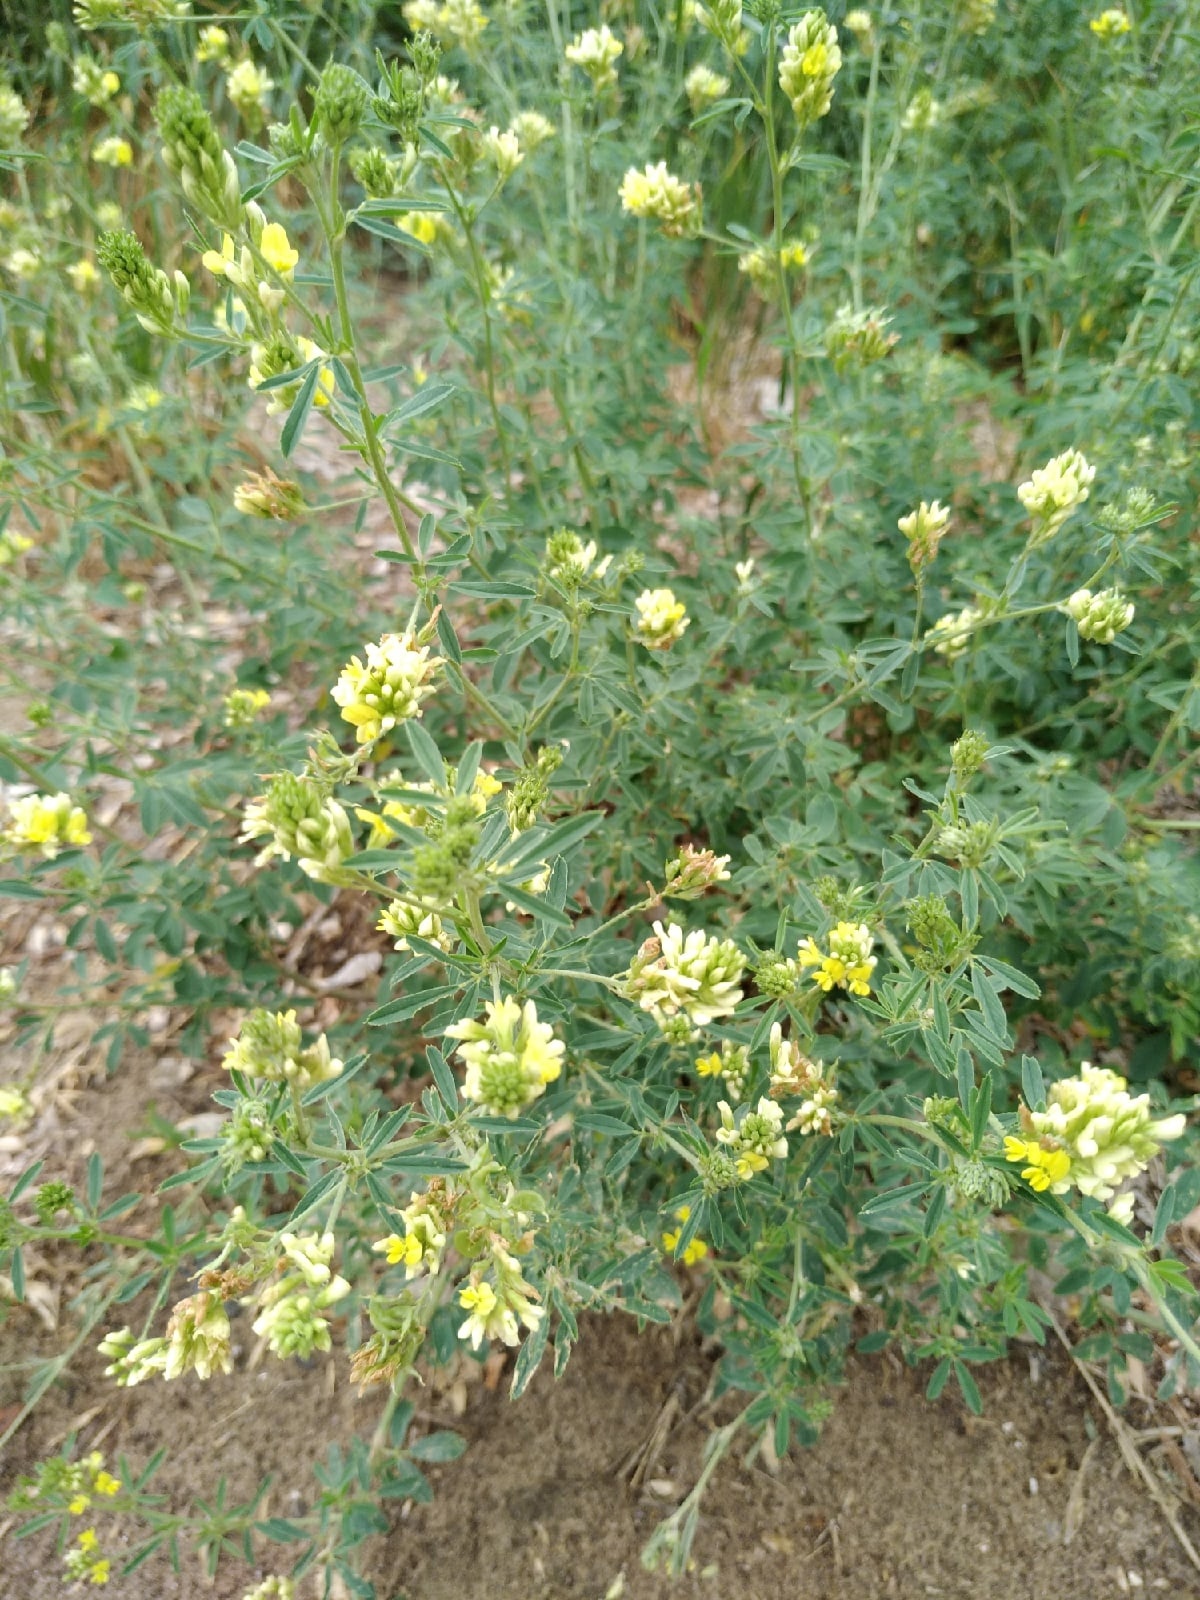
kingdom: Plantae
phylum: Tracheophyta
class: Magnoliopsida
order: Fabales
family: Fabaceae
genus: Medicago
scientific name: Medicago varia
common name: Sand lucerne
